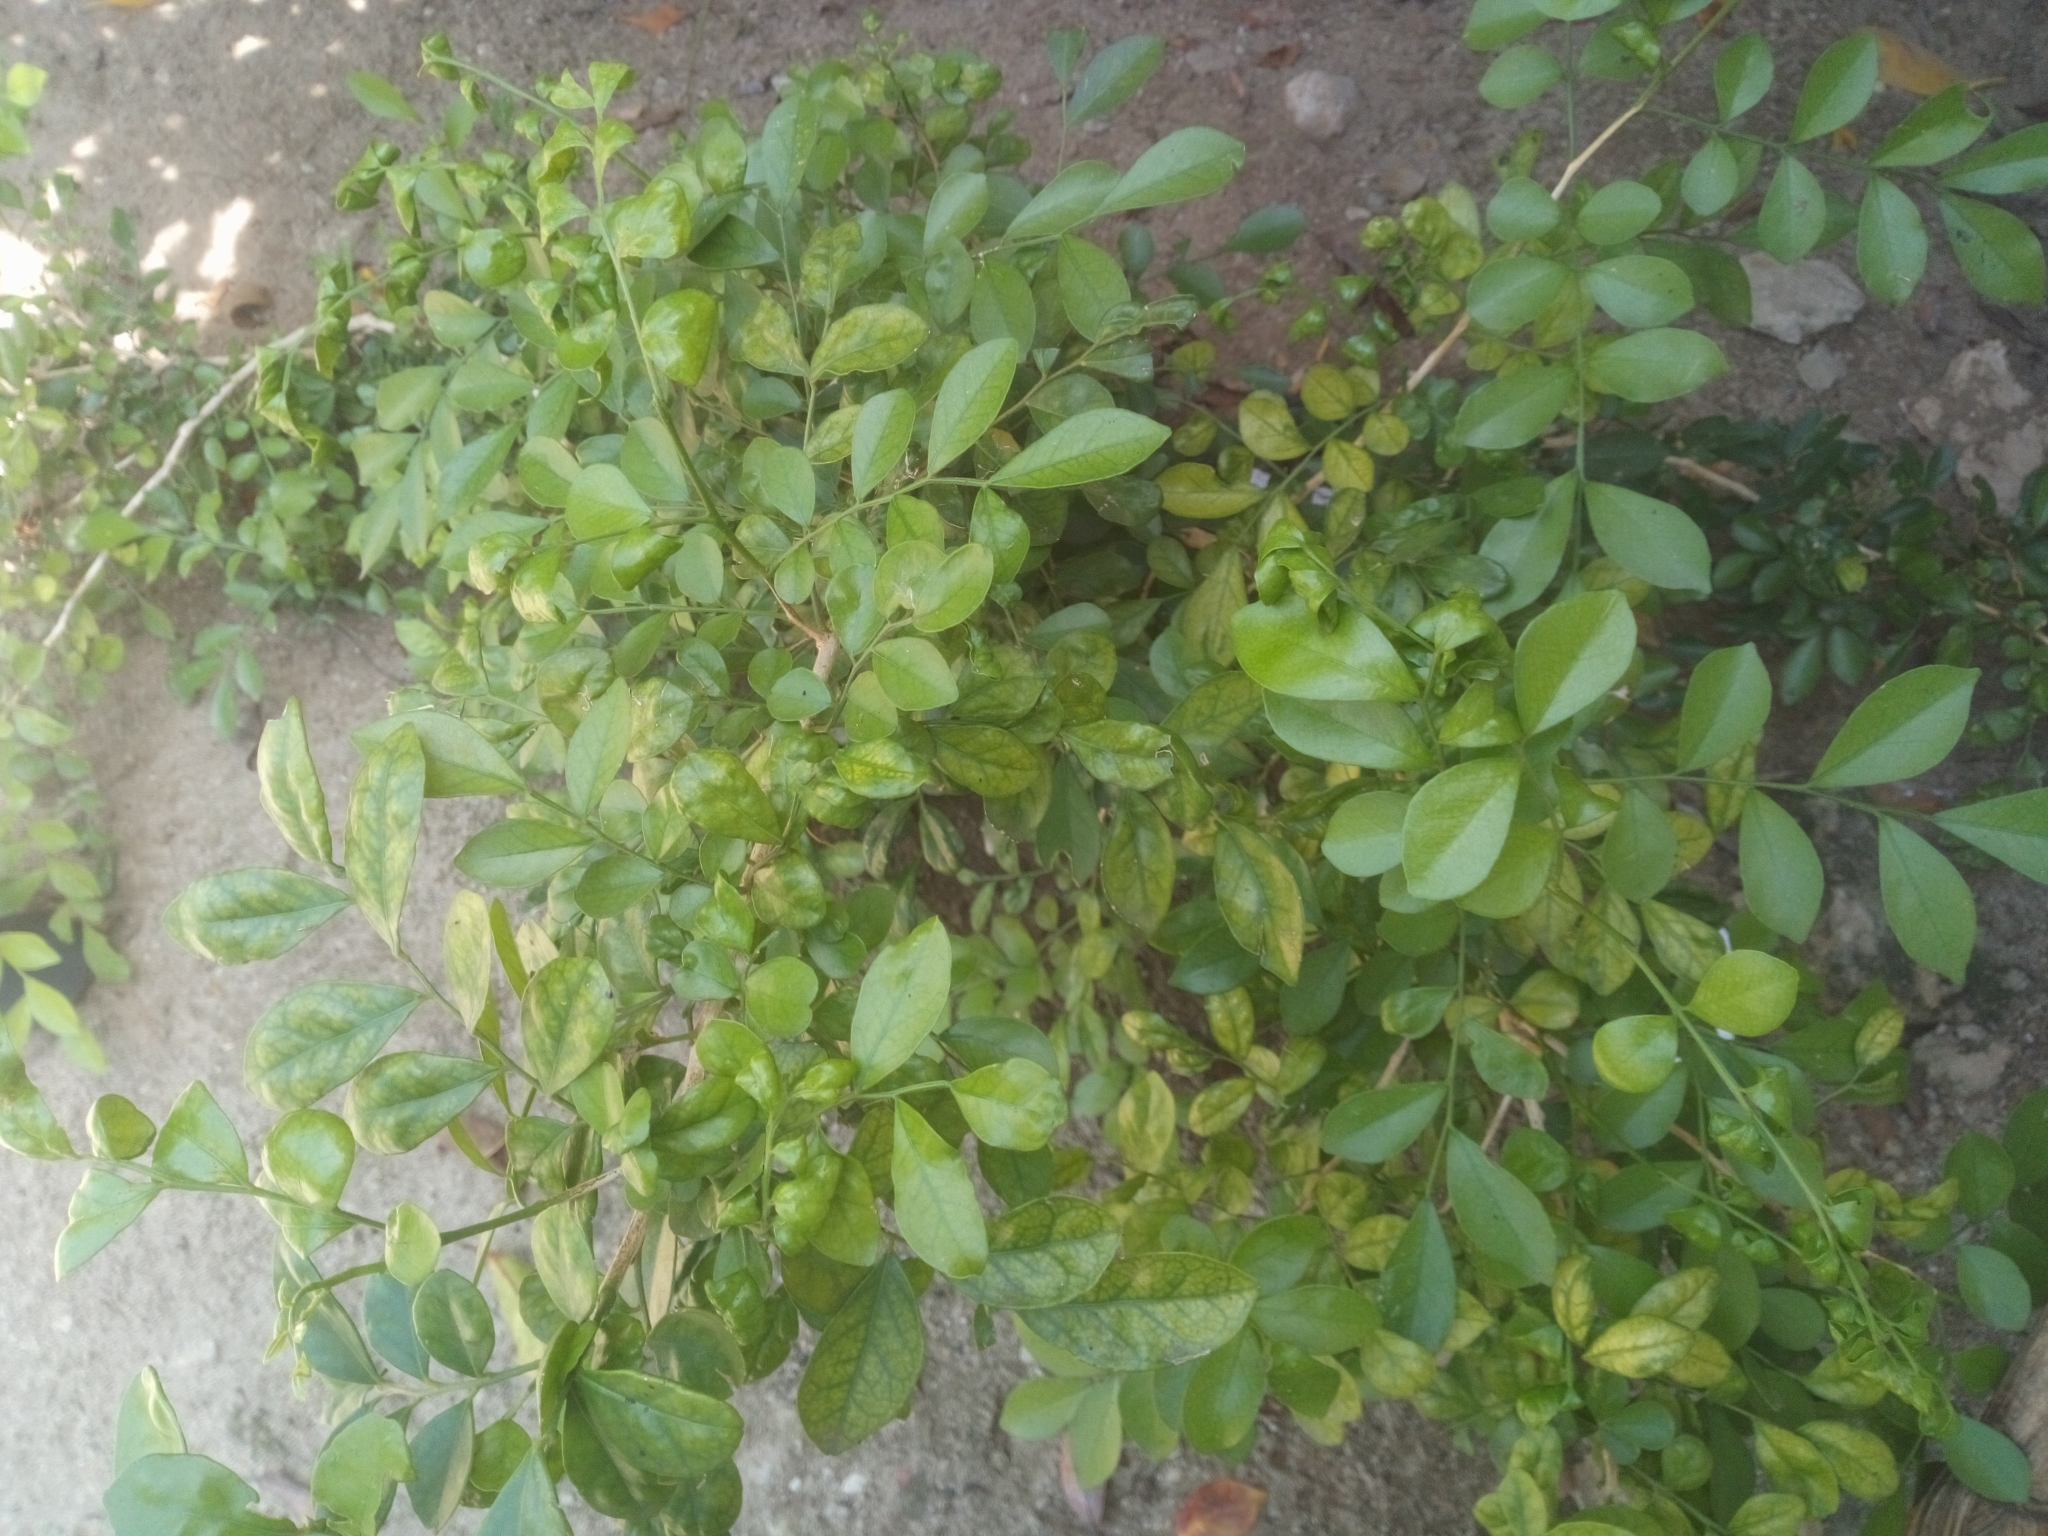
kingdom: Plantae
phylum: Tracheophyta
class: Magnoliopsida
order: Sapindales
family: Rutaceae
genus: Murraya
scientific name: Murraya paniculata
